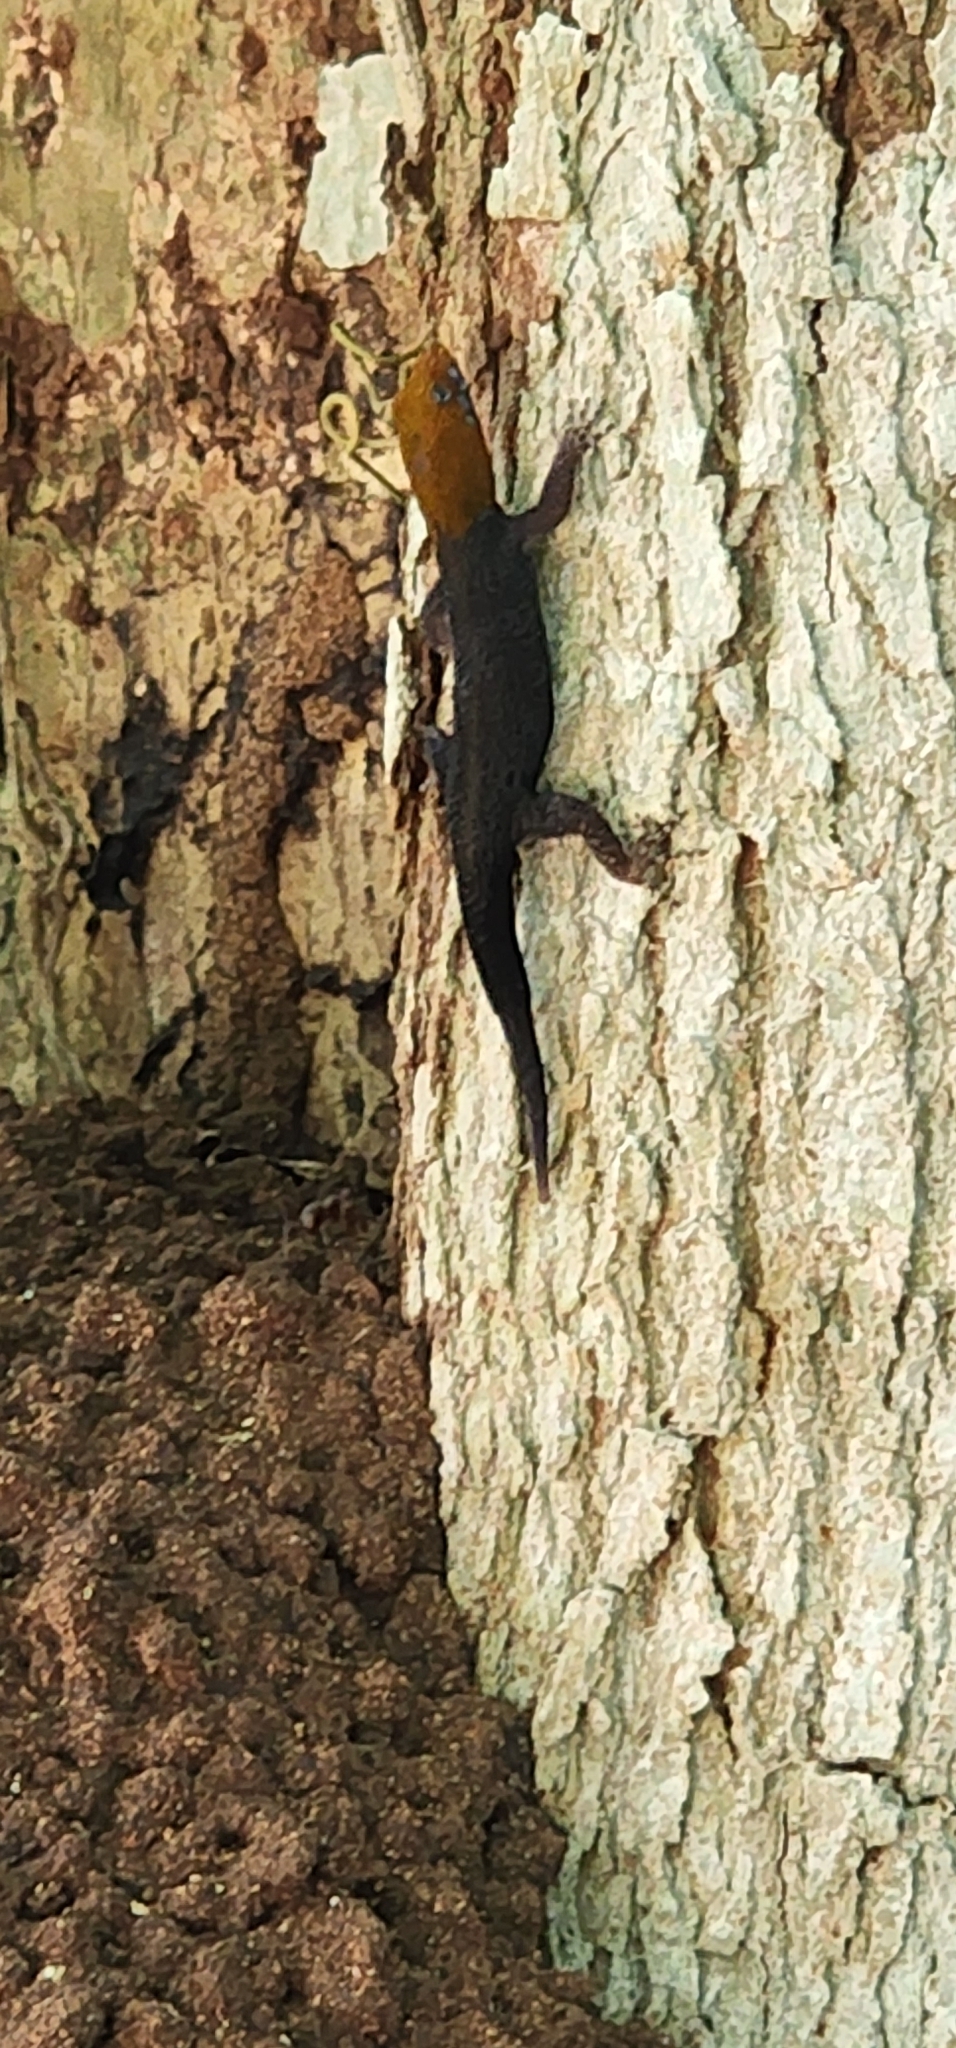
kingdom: Animalia
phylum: Chordata
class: Squamata
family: Sphaerodactylidae
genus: Gonatodes
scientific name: Gonatodes albogularis
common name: Yellow-headed gecko
